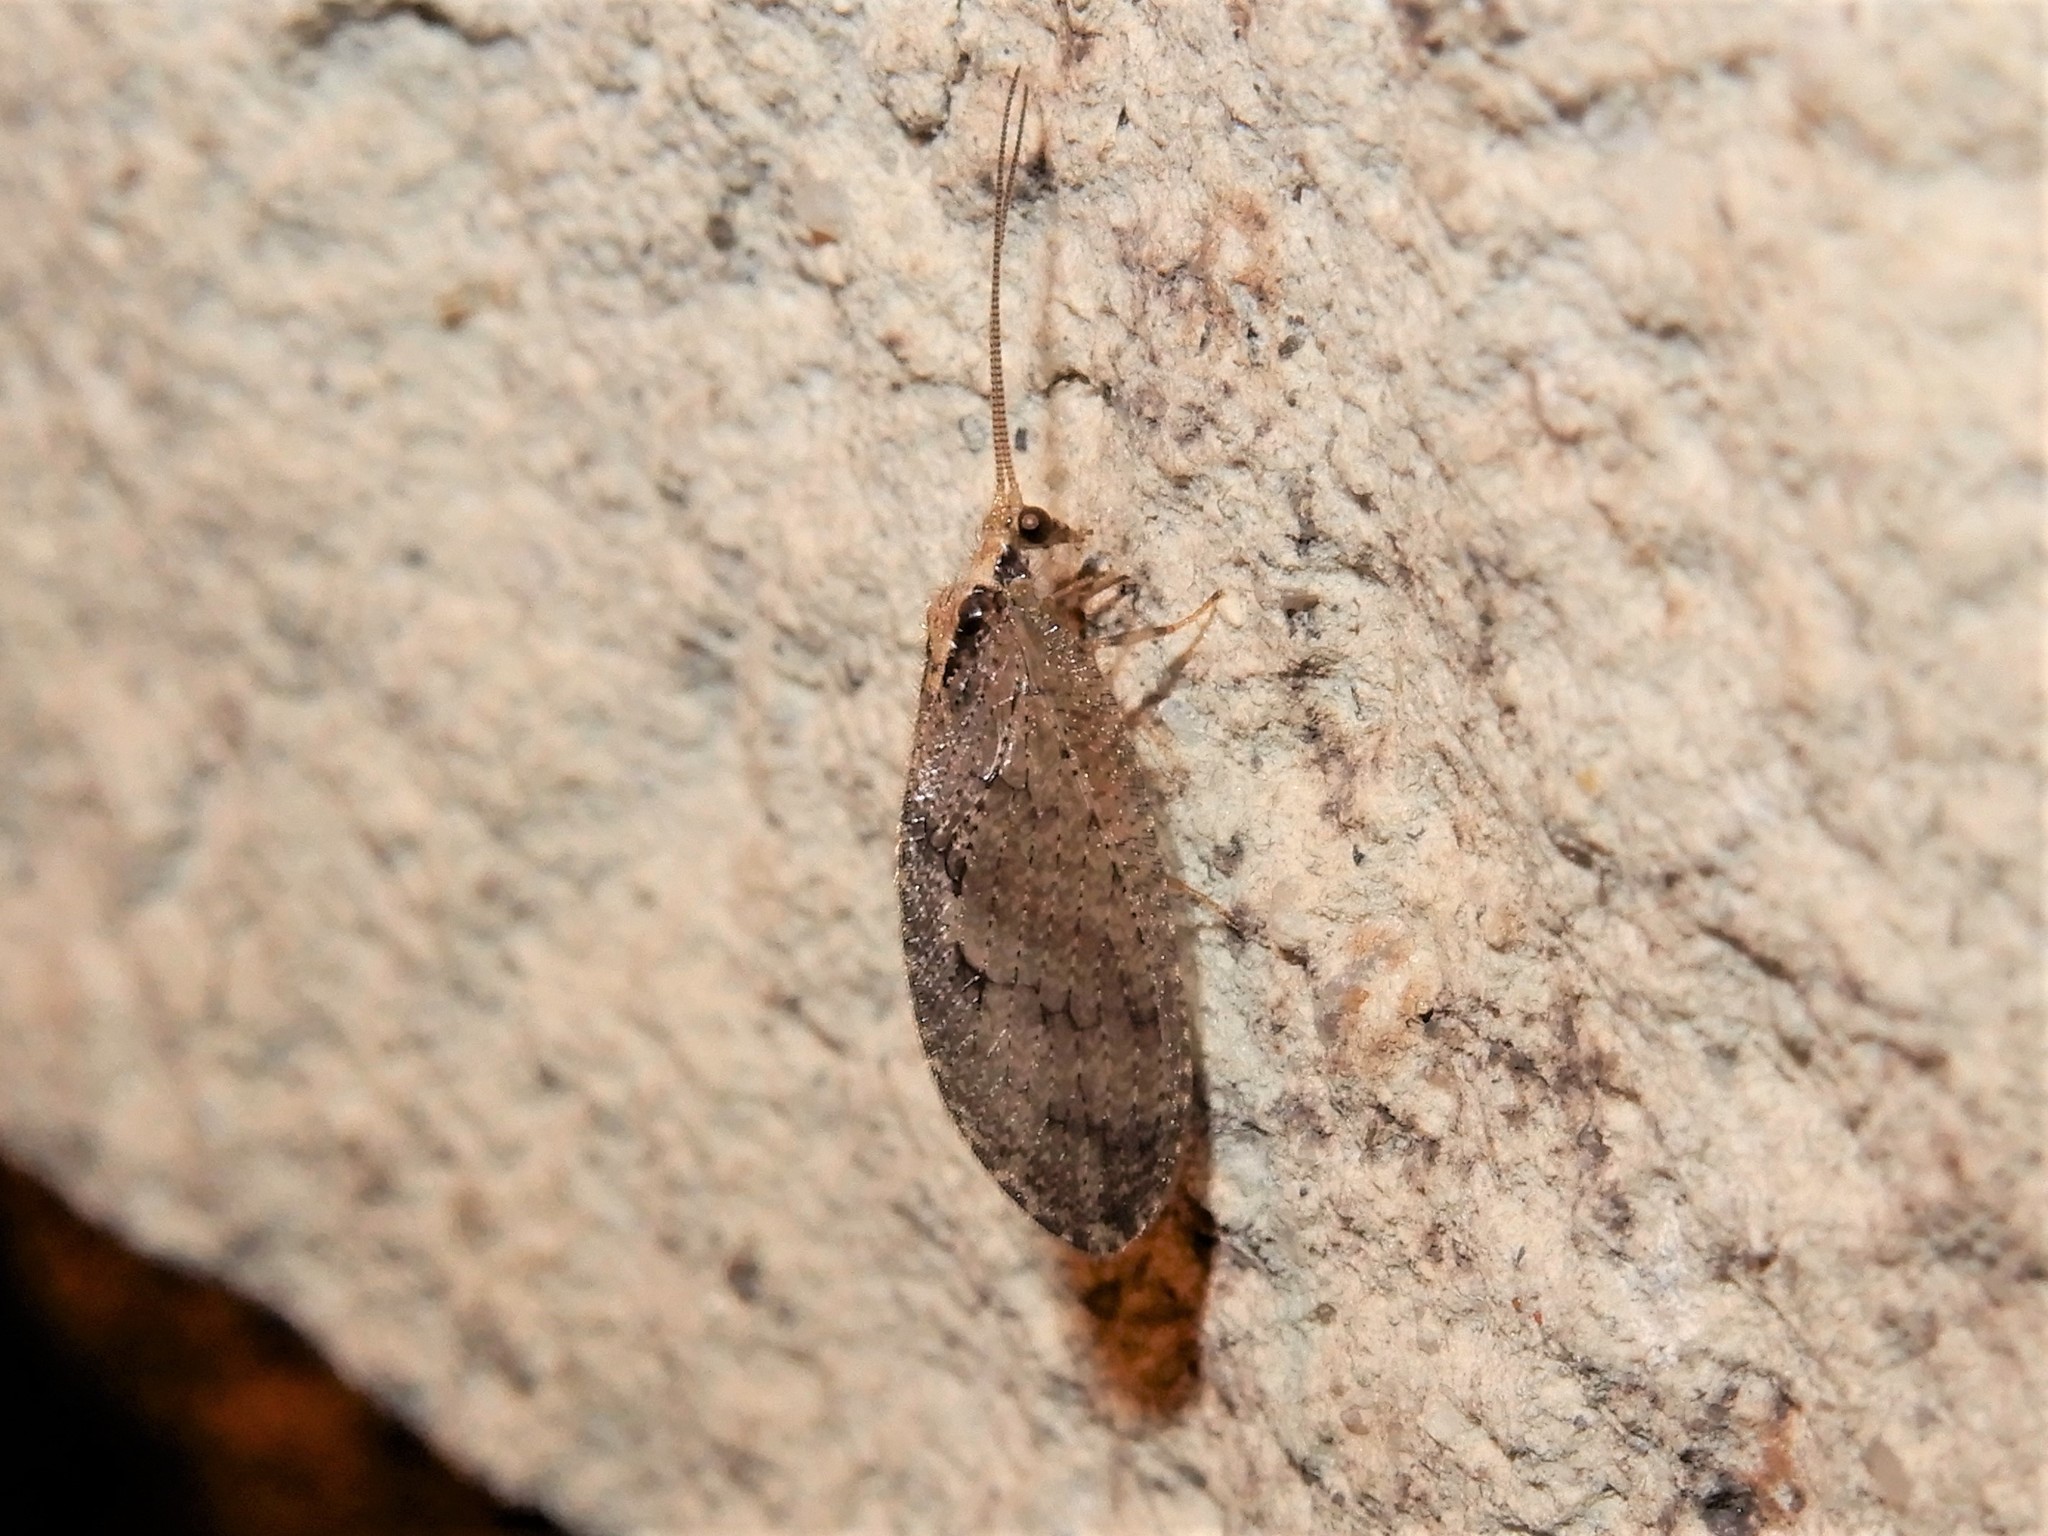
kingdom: Animalia
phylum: Arthropoda
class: Insecta
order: Neuroptera
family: Hemerobiidae
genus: Wesmaelius
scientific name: Wesmaelius subnebulosus
